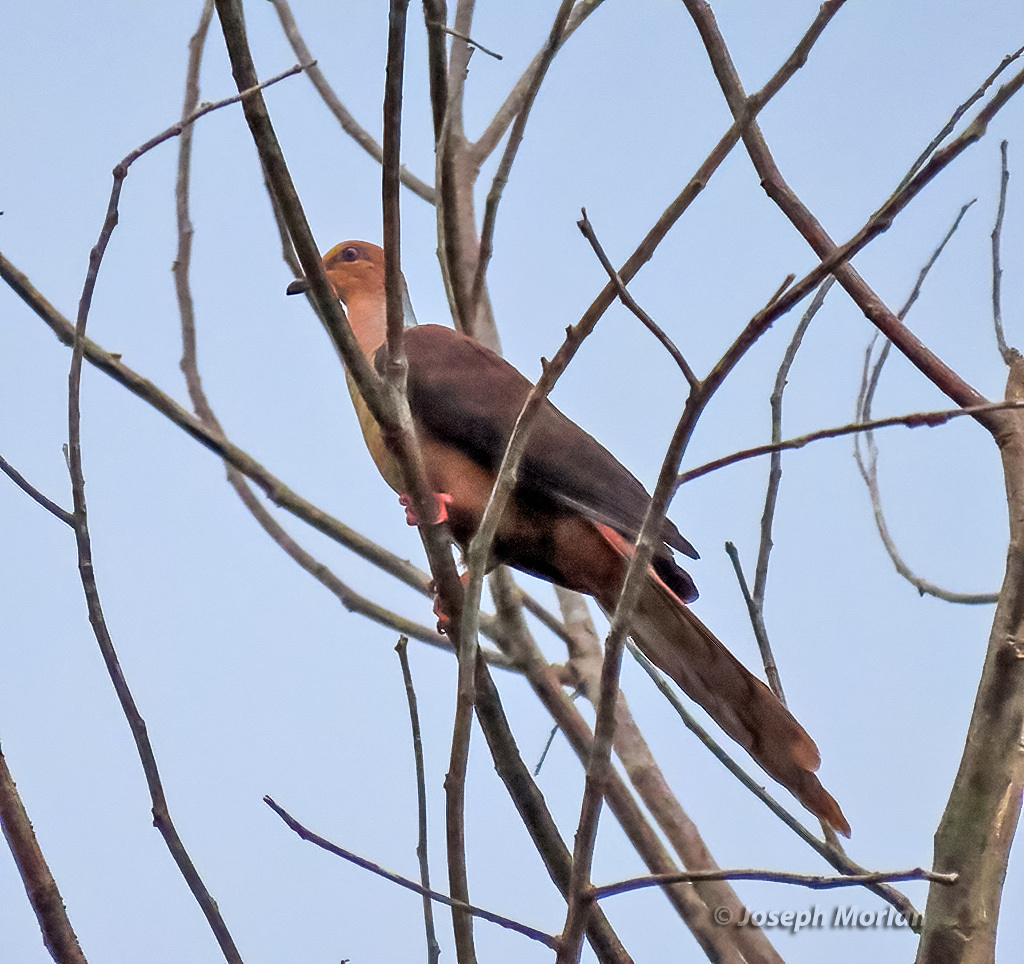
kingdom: Animalia
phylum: Chordata
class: Aves
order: Columbiformes
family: Columbidae
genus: Macropygia
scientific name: Macropygia amboinensis
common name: Amboyna cuckoo-dove
